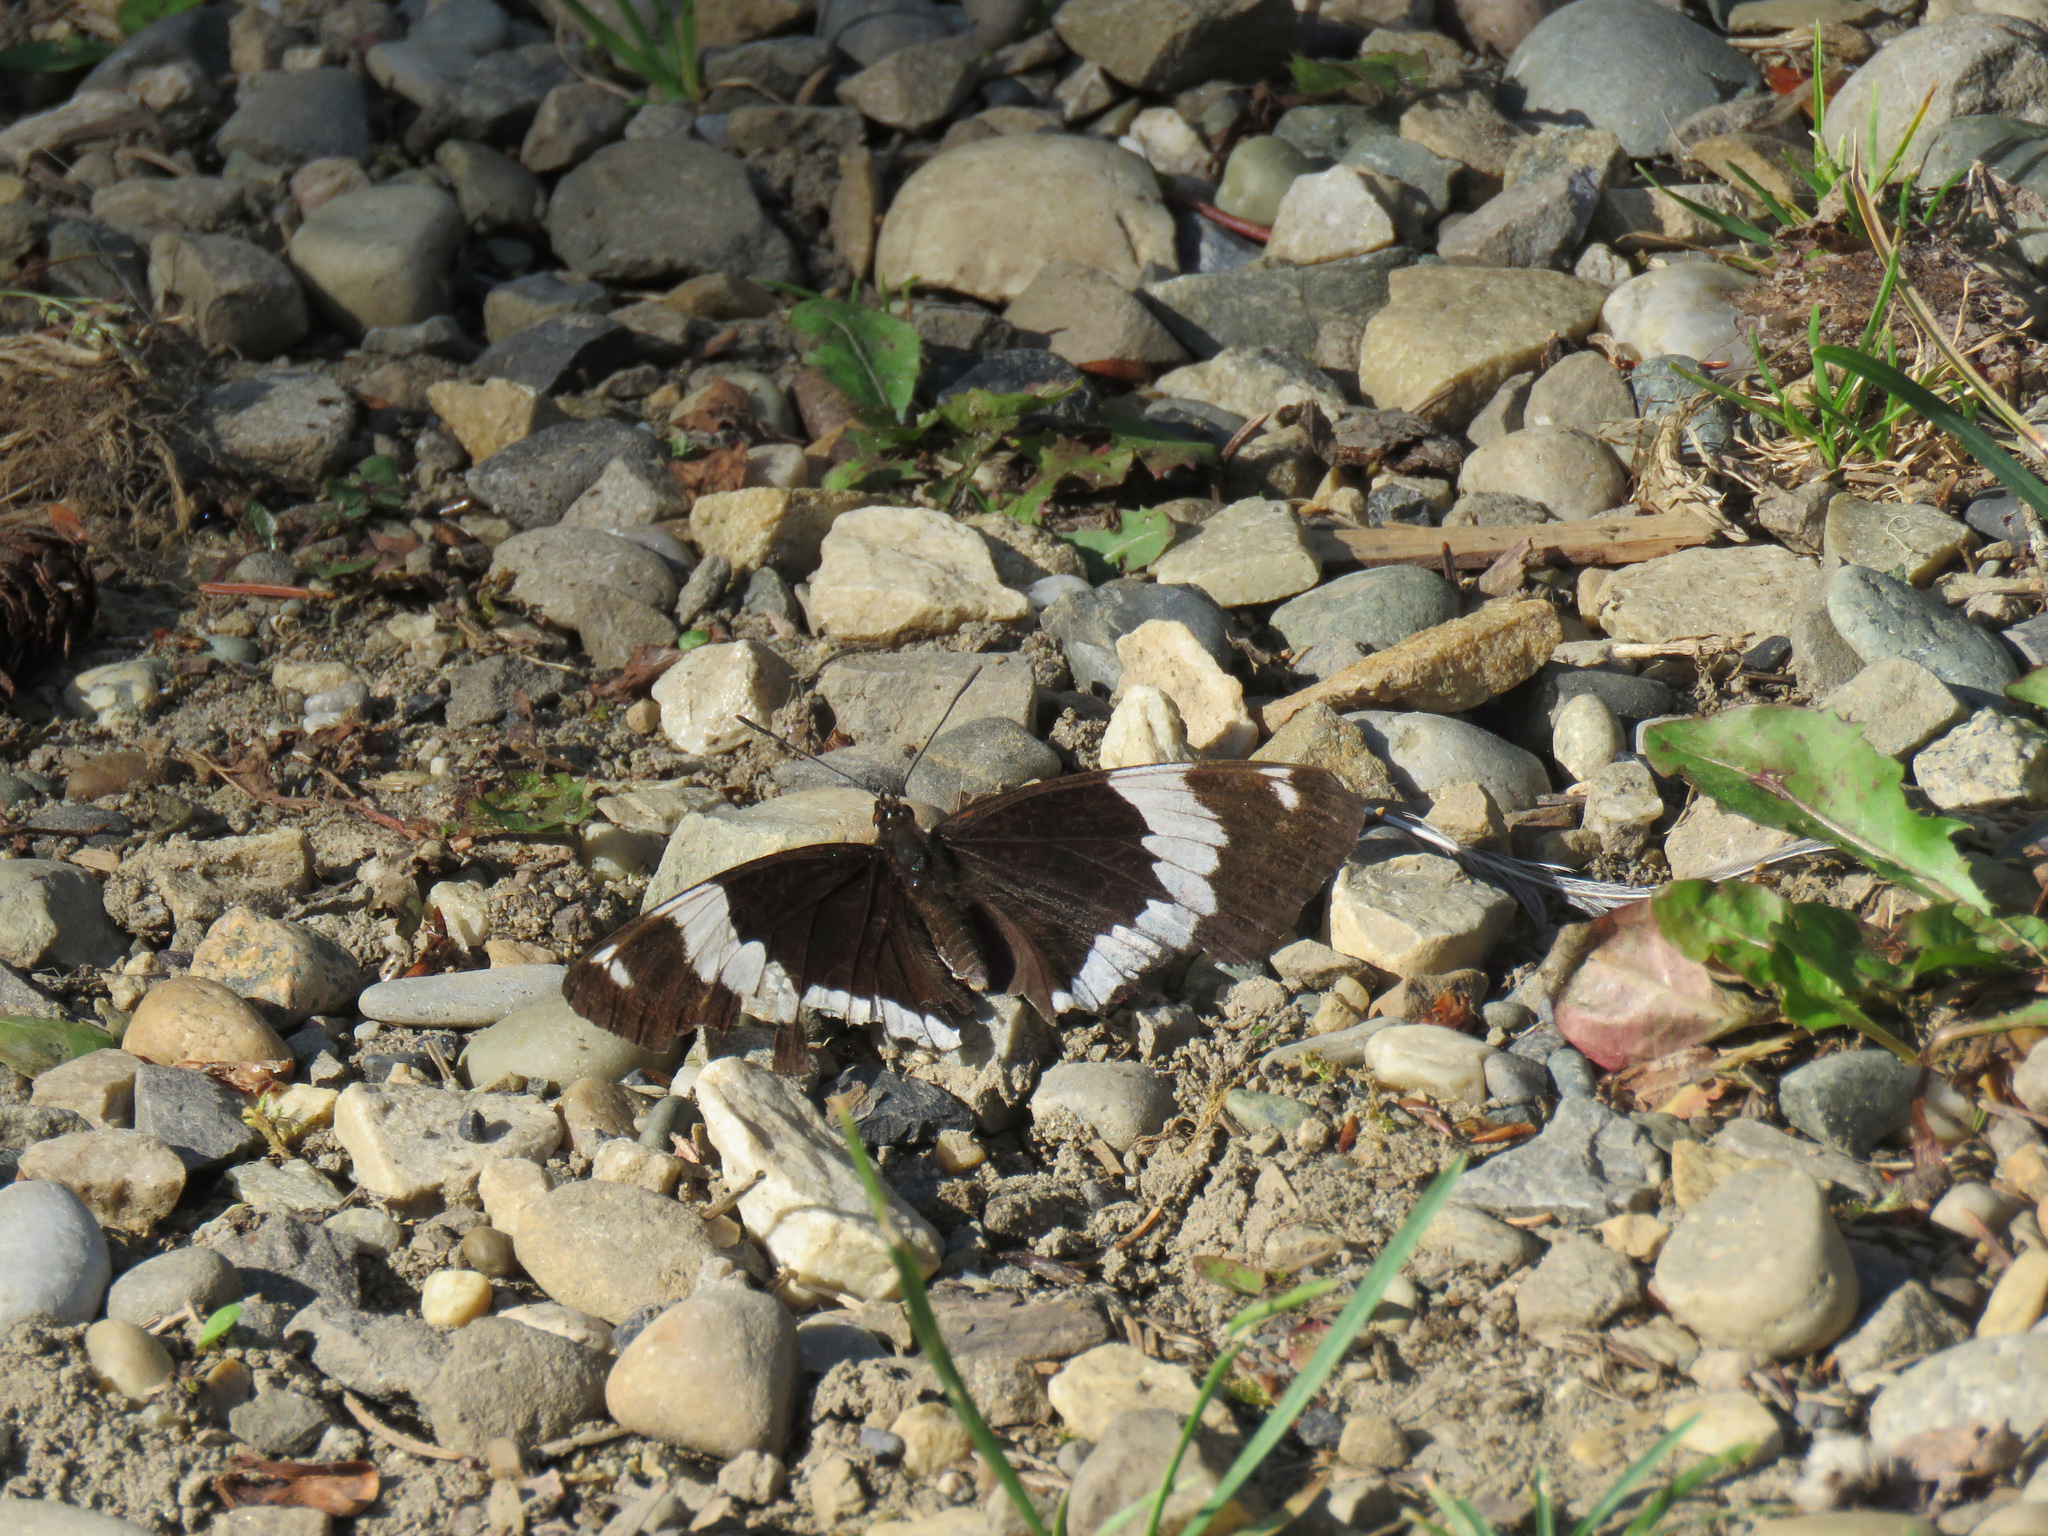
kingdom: Animalia
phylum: Arthropoda
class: Insecta
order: Lepidoptera
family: Nymphalidae
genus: Limenitis
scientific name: Limenitis arthemis
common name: Red-spotted admiral
